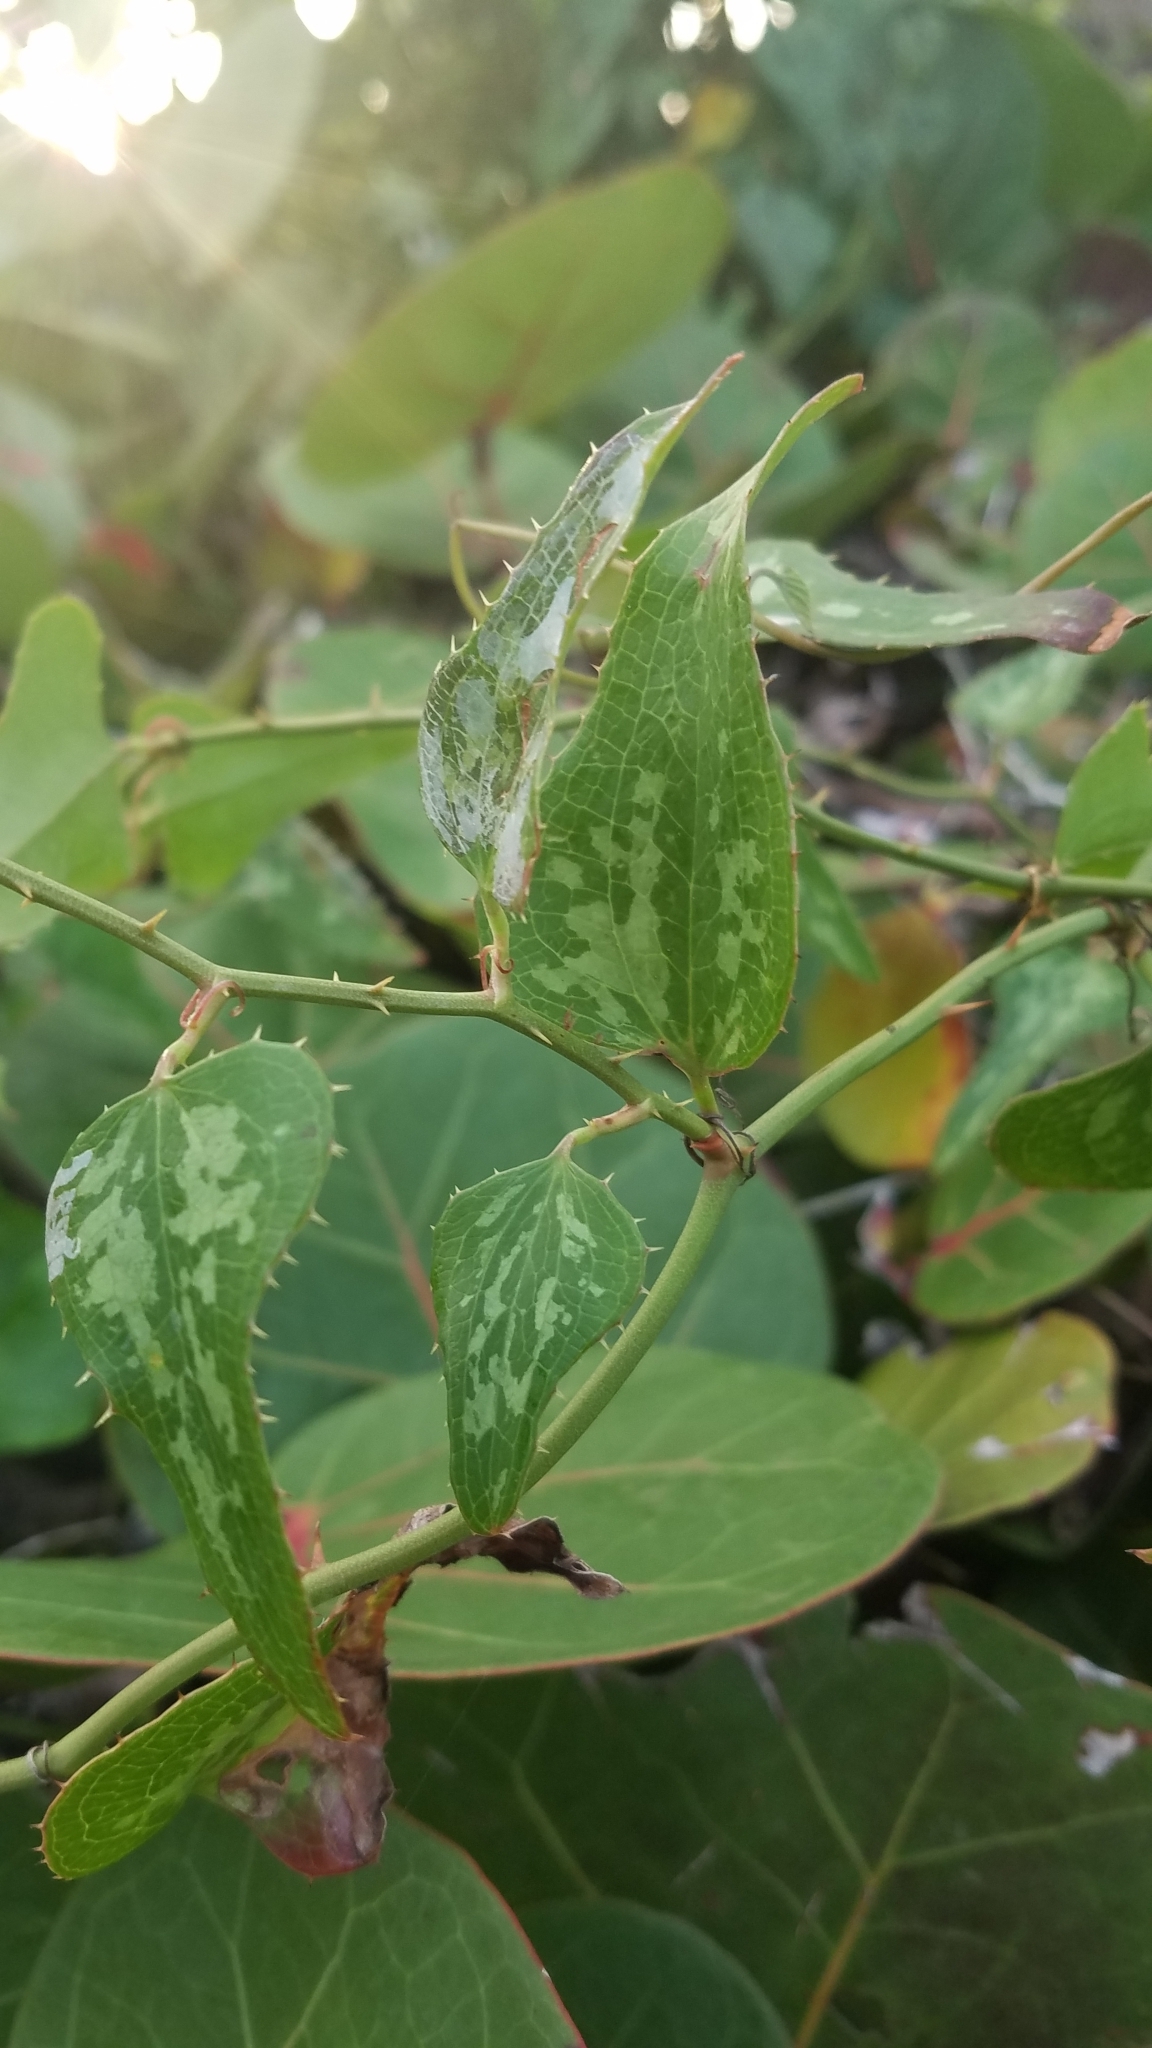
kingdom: Plantae
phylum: Tracheophyta
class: Liliopsida
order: Liliales
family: Smilacaceae
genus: Smilax
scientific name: Smilax bona-nox
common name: Catbrier
